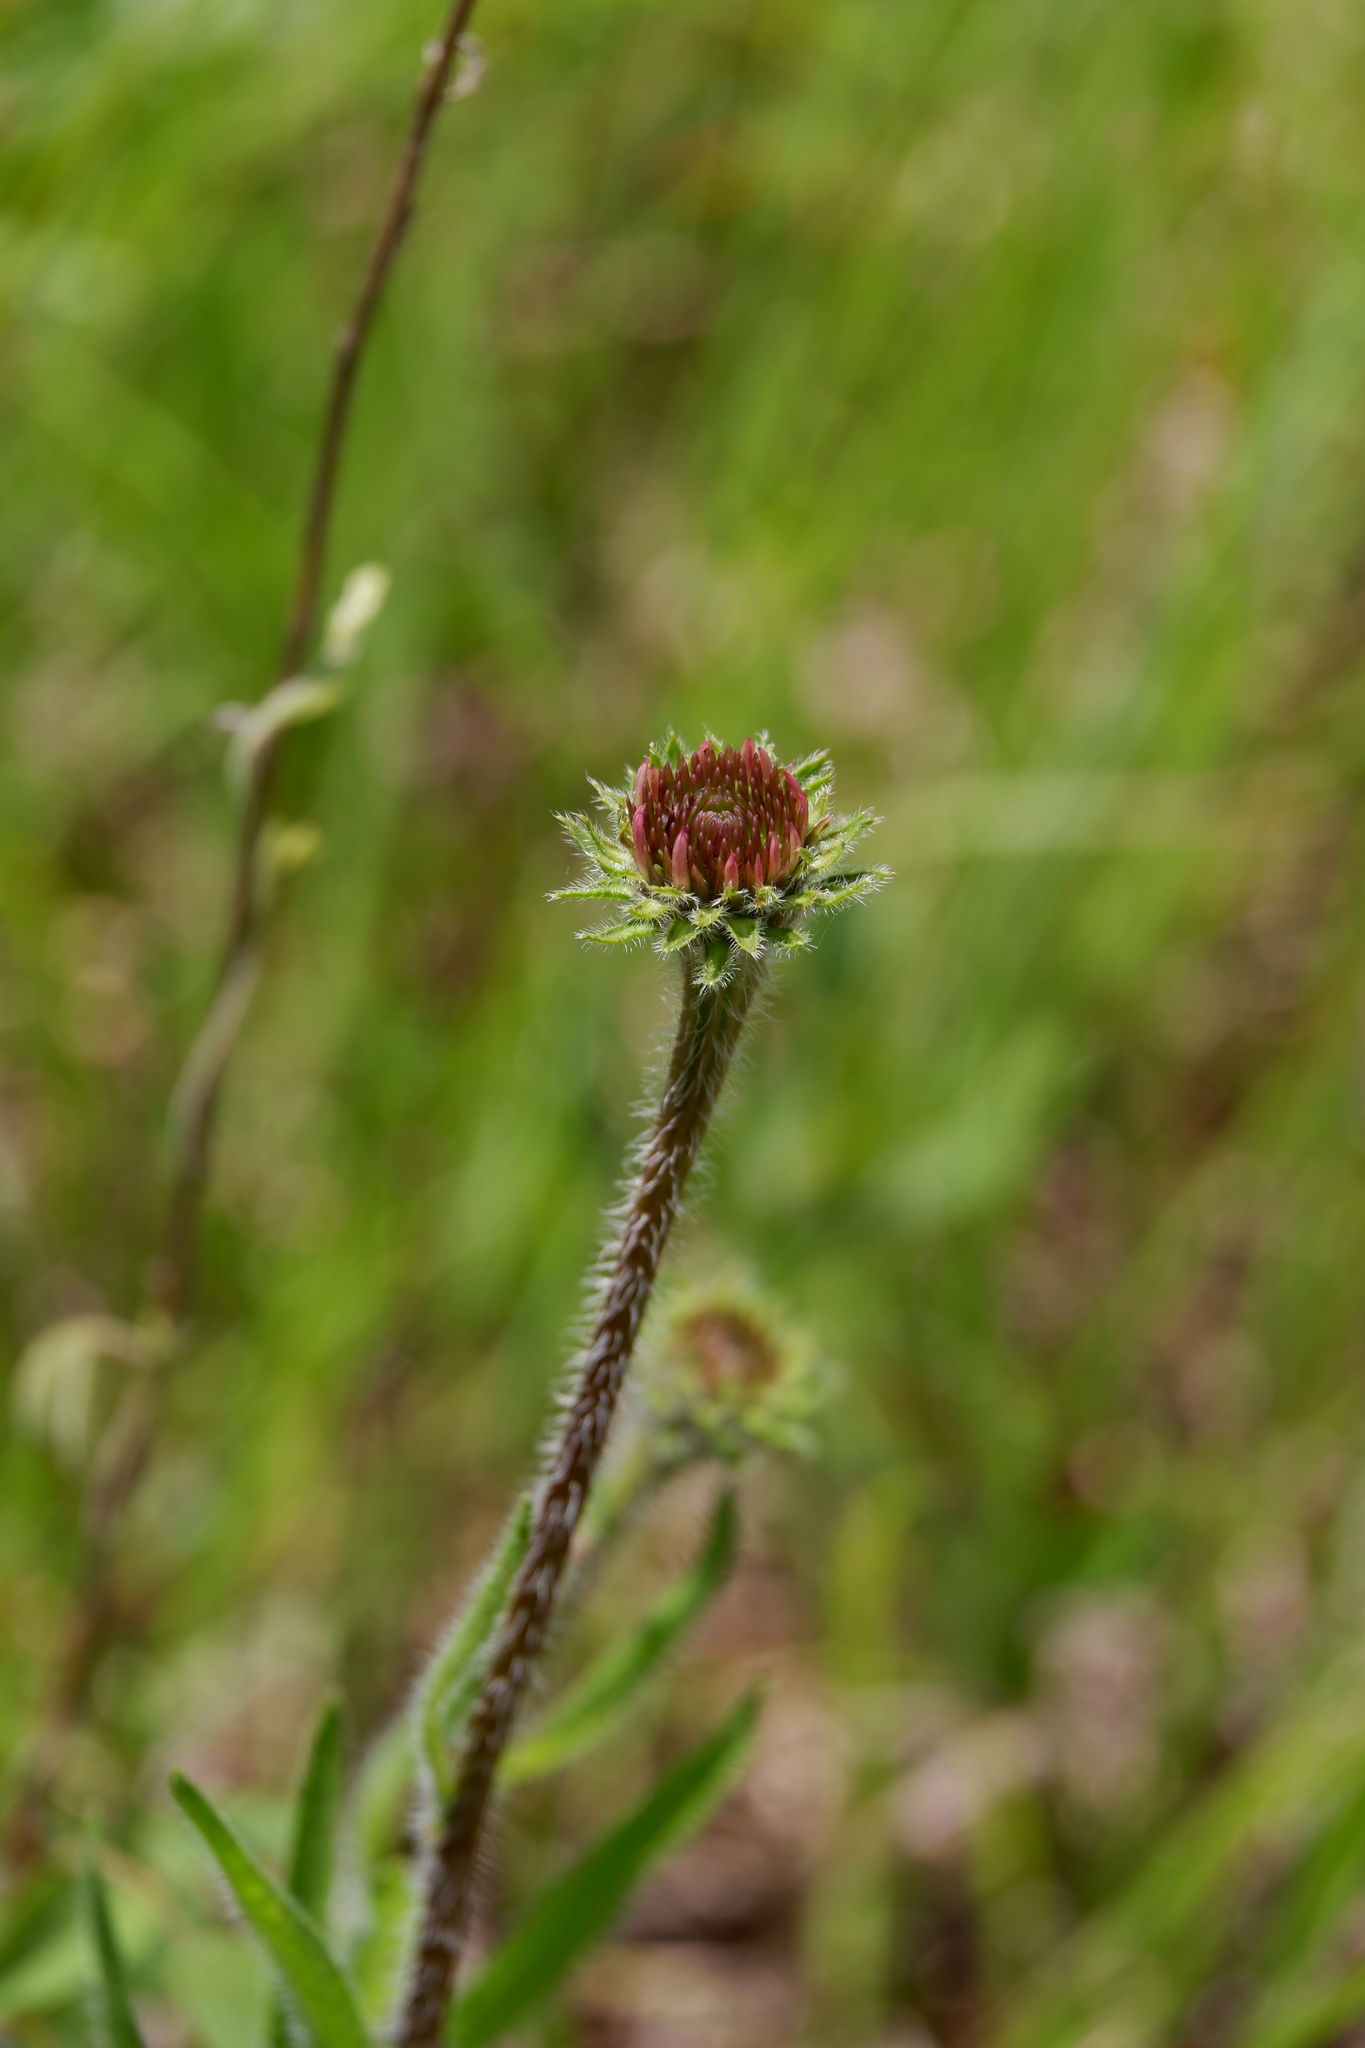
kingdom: Plantae
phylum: Tracheophyta
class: Magnoliopsida
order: Asterales
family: Asteraceae
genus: Echinacea
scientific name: Echinacea tennesseensis
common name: Tennessee purple-coneflower
